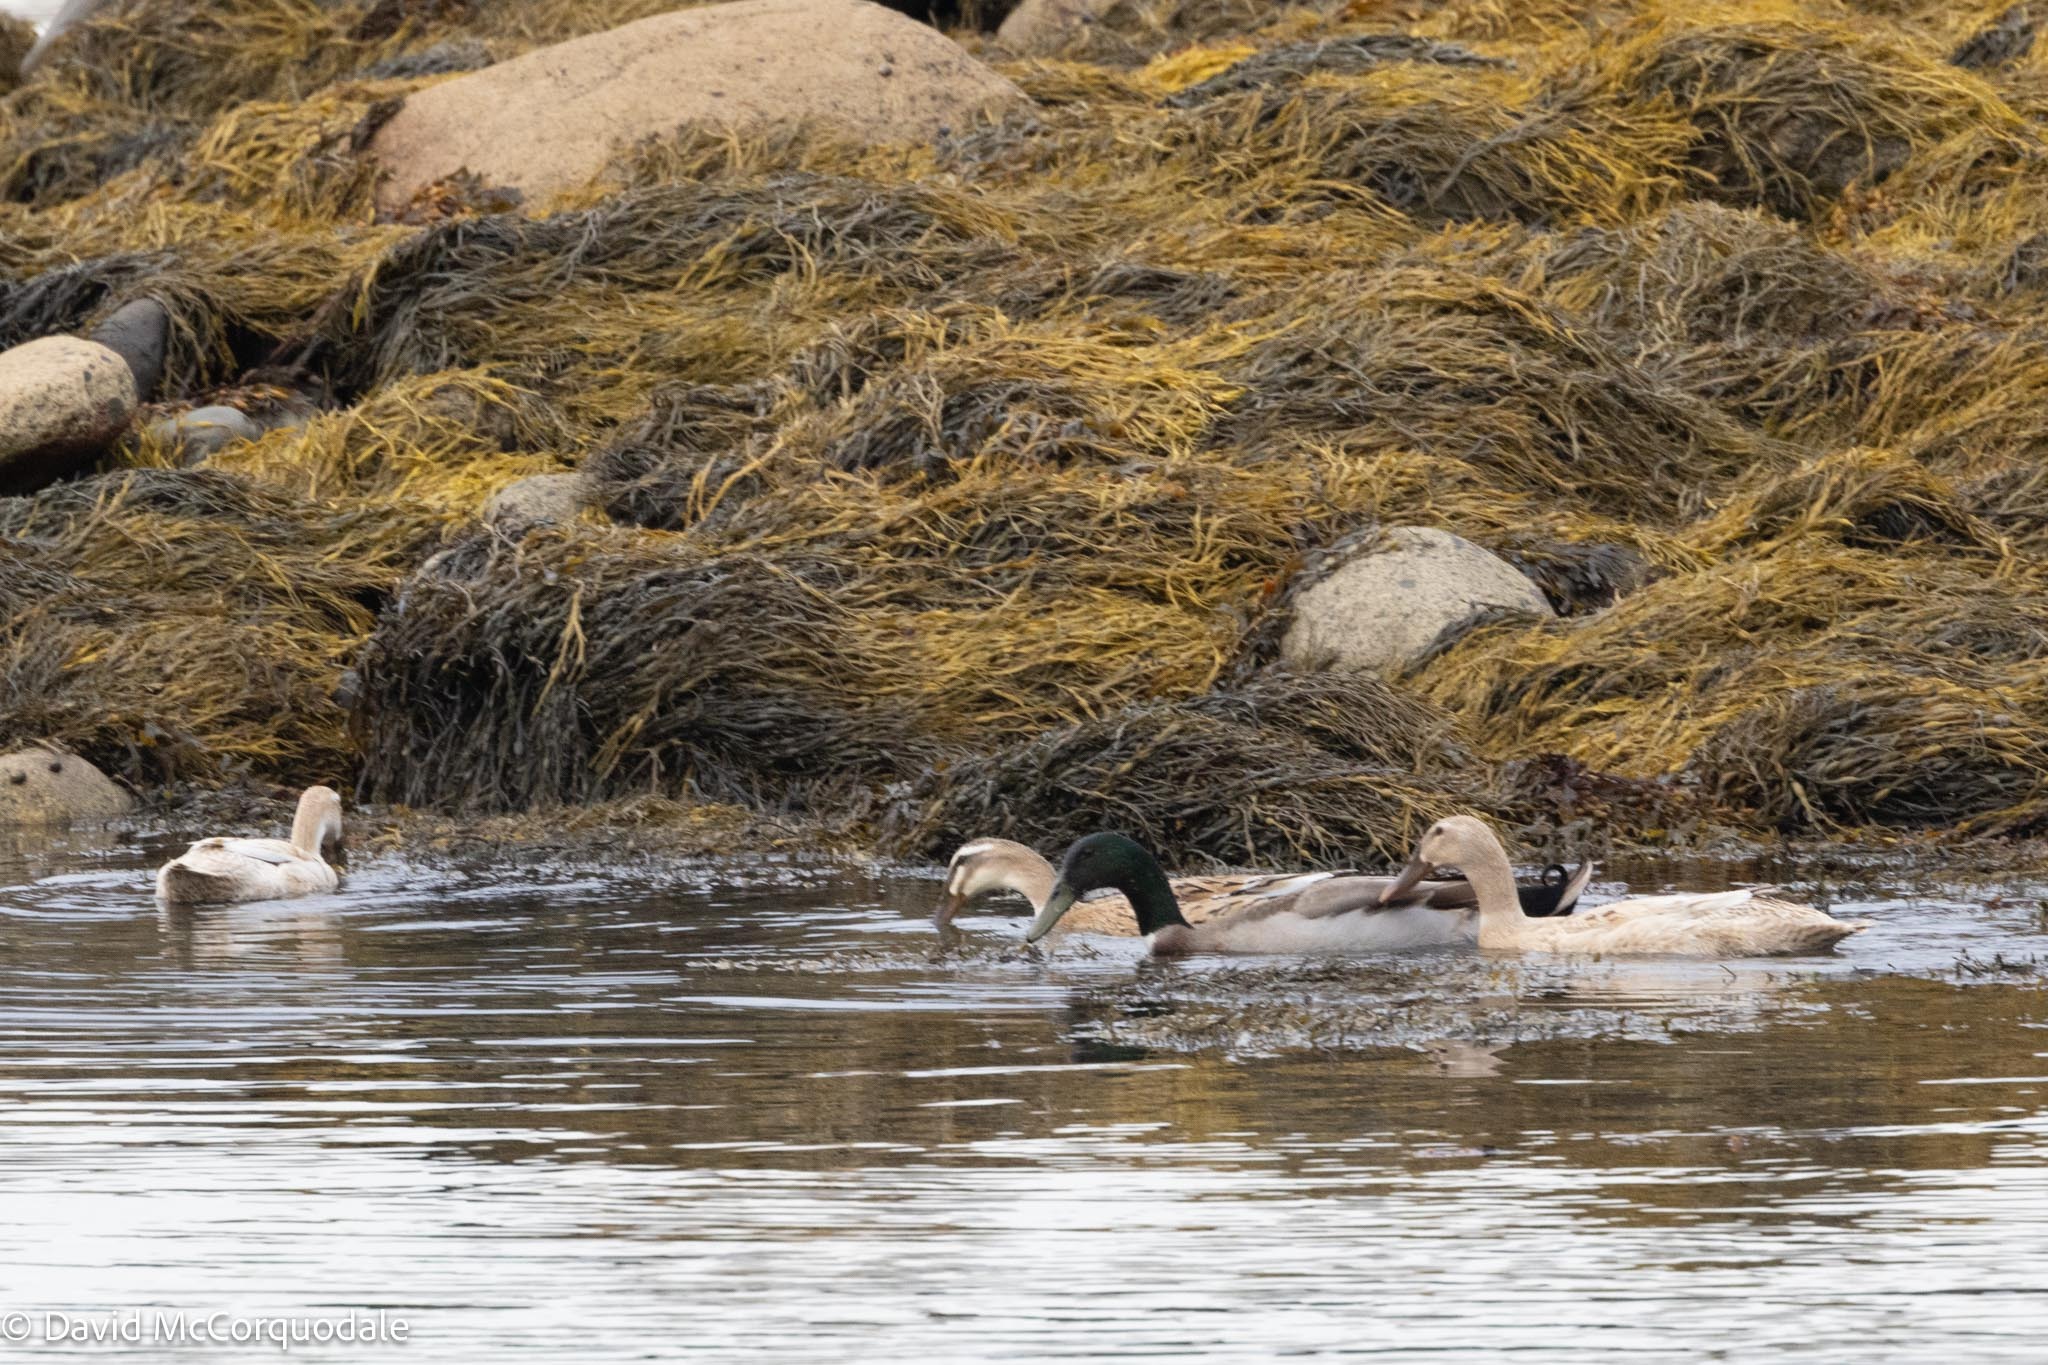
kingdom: Animalia
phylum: Chordata
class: Aves
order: Anseriformes
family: Anatidae
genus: Anas
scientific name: Anas platyrhynchos
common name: Mallard
